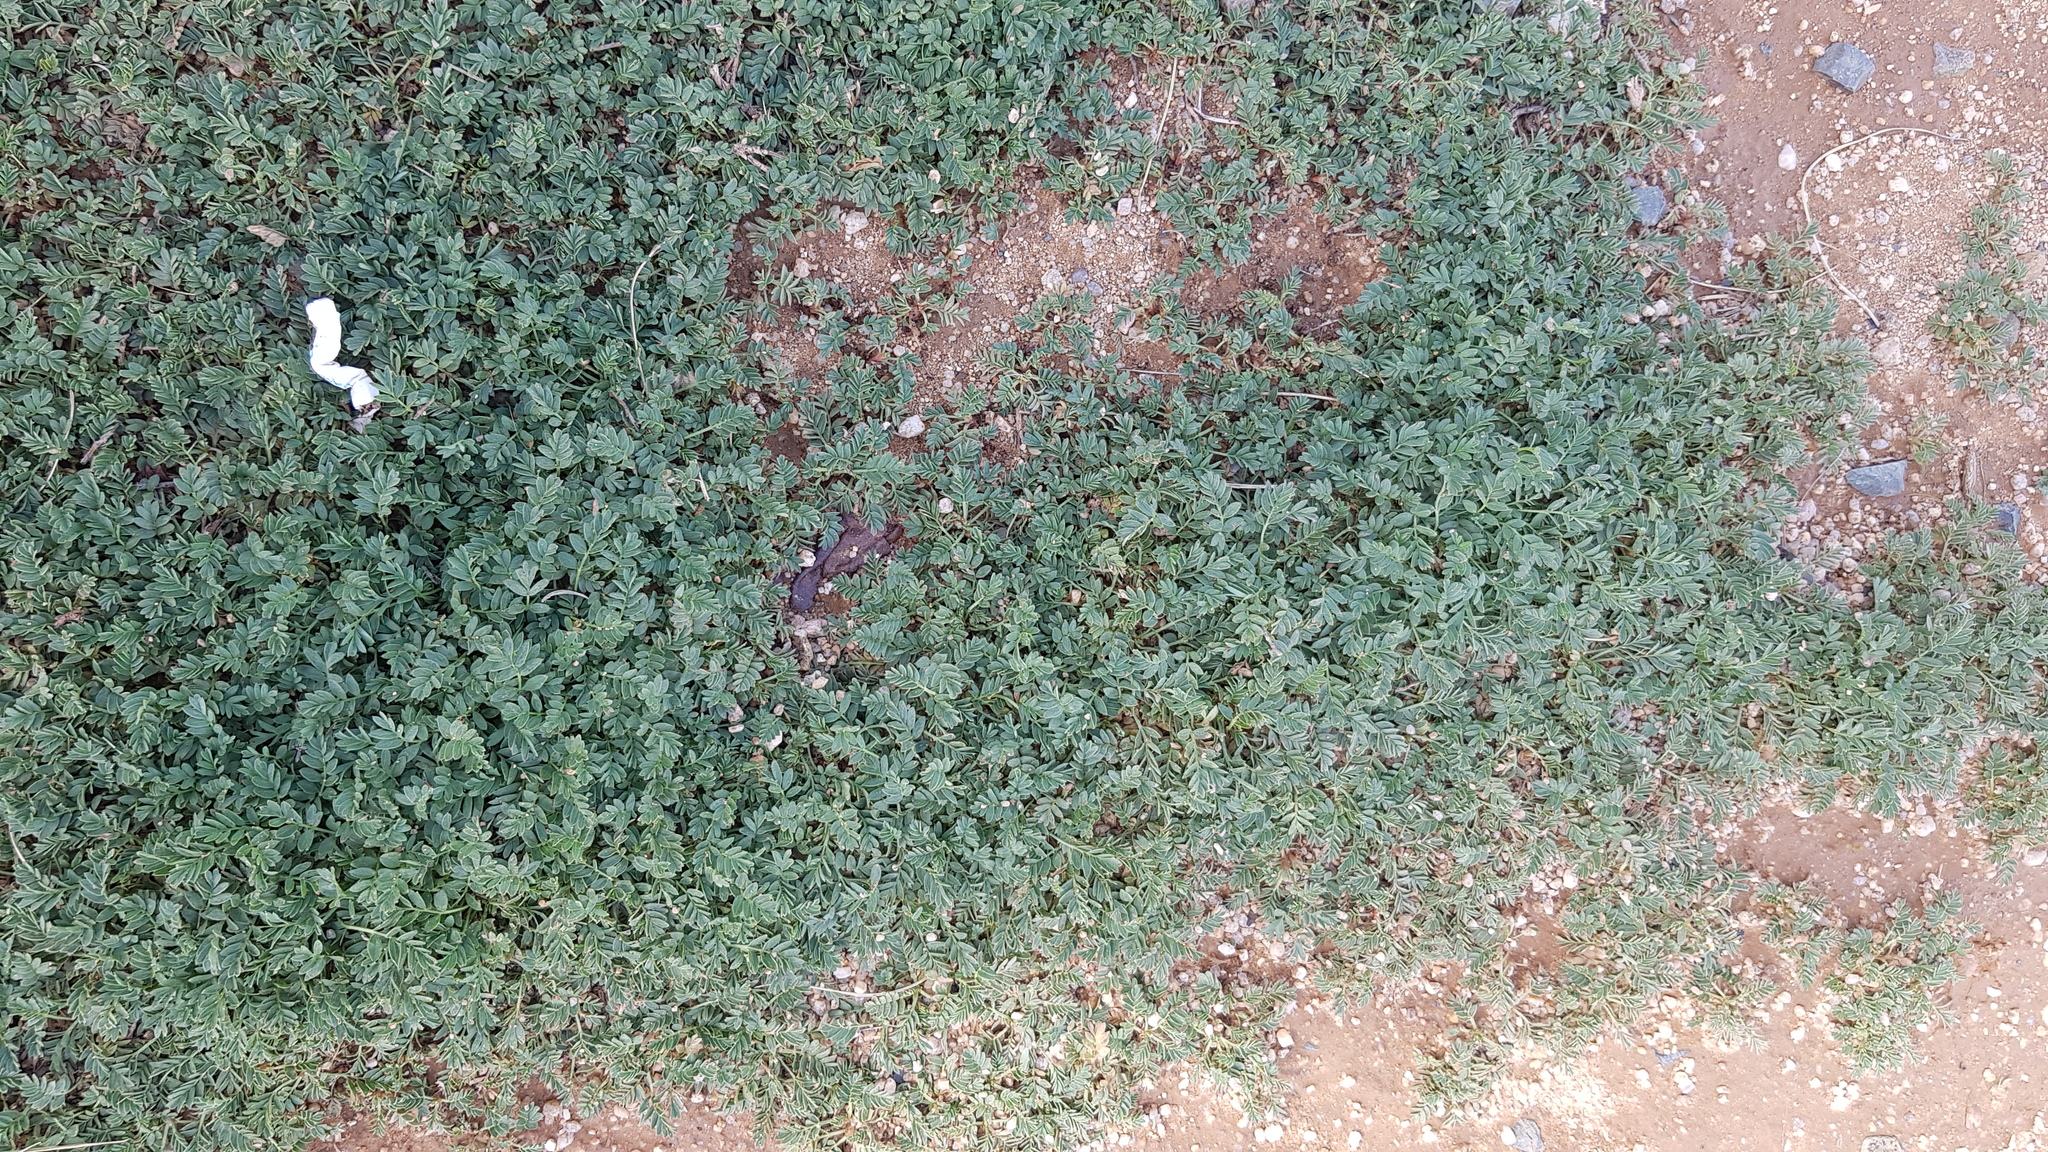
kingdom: Plantae
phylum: Tracheophyta
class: Magnoliopsida
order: Rosales
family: Rosaceae
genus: Sibbaldianthe
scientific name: Sibbaldianthe bifurca
